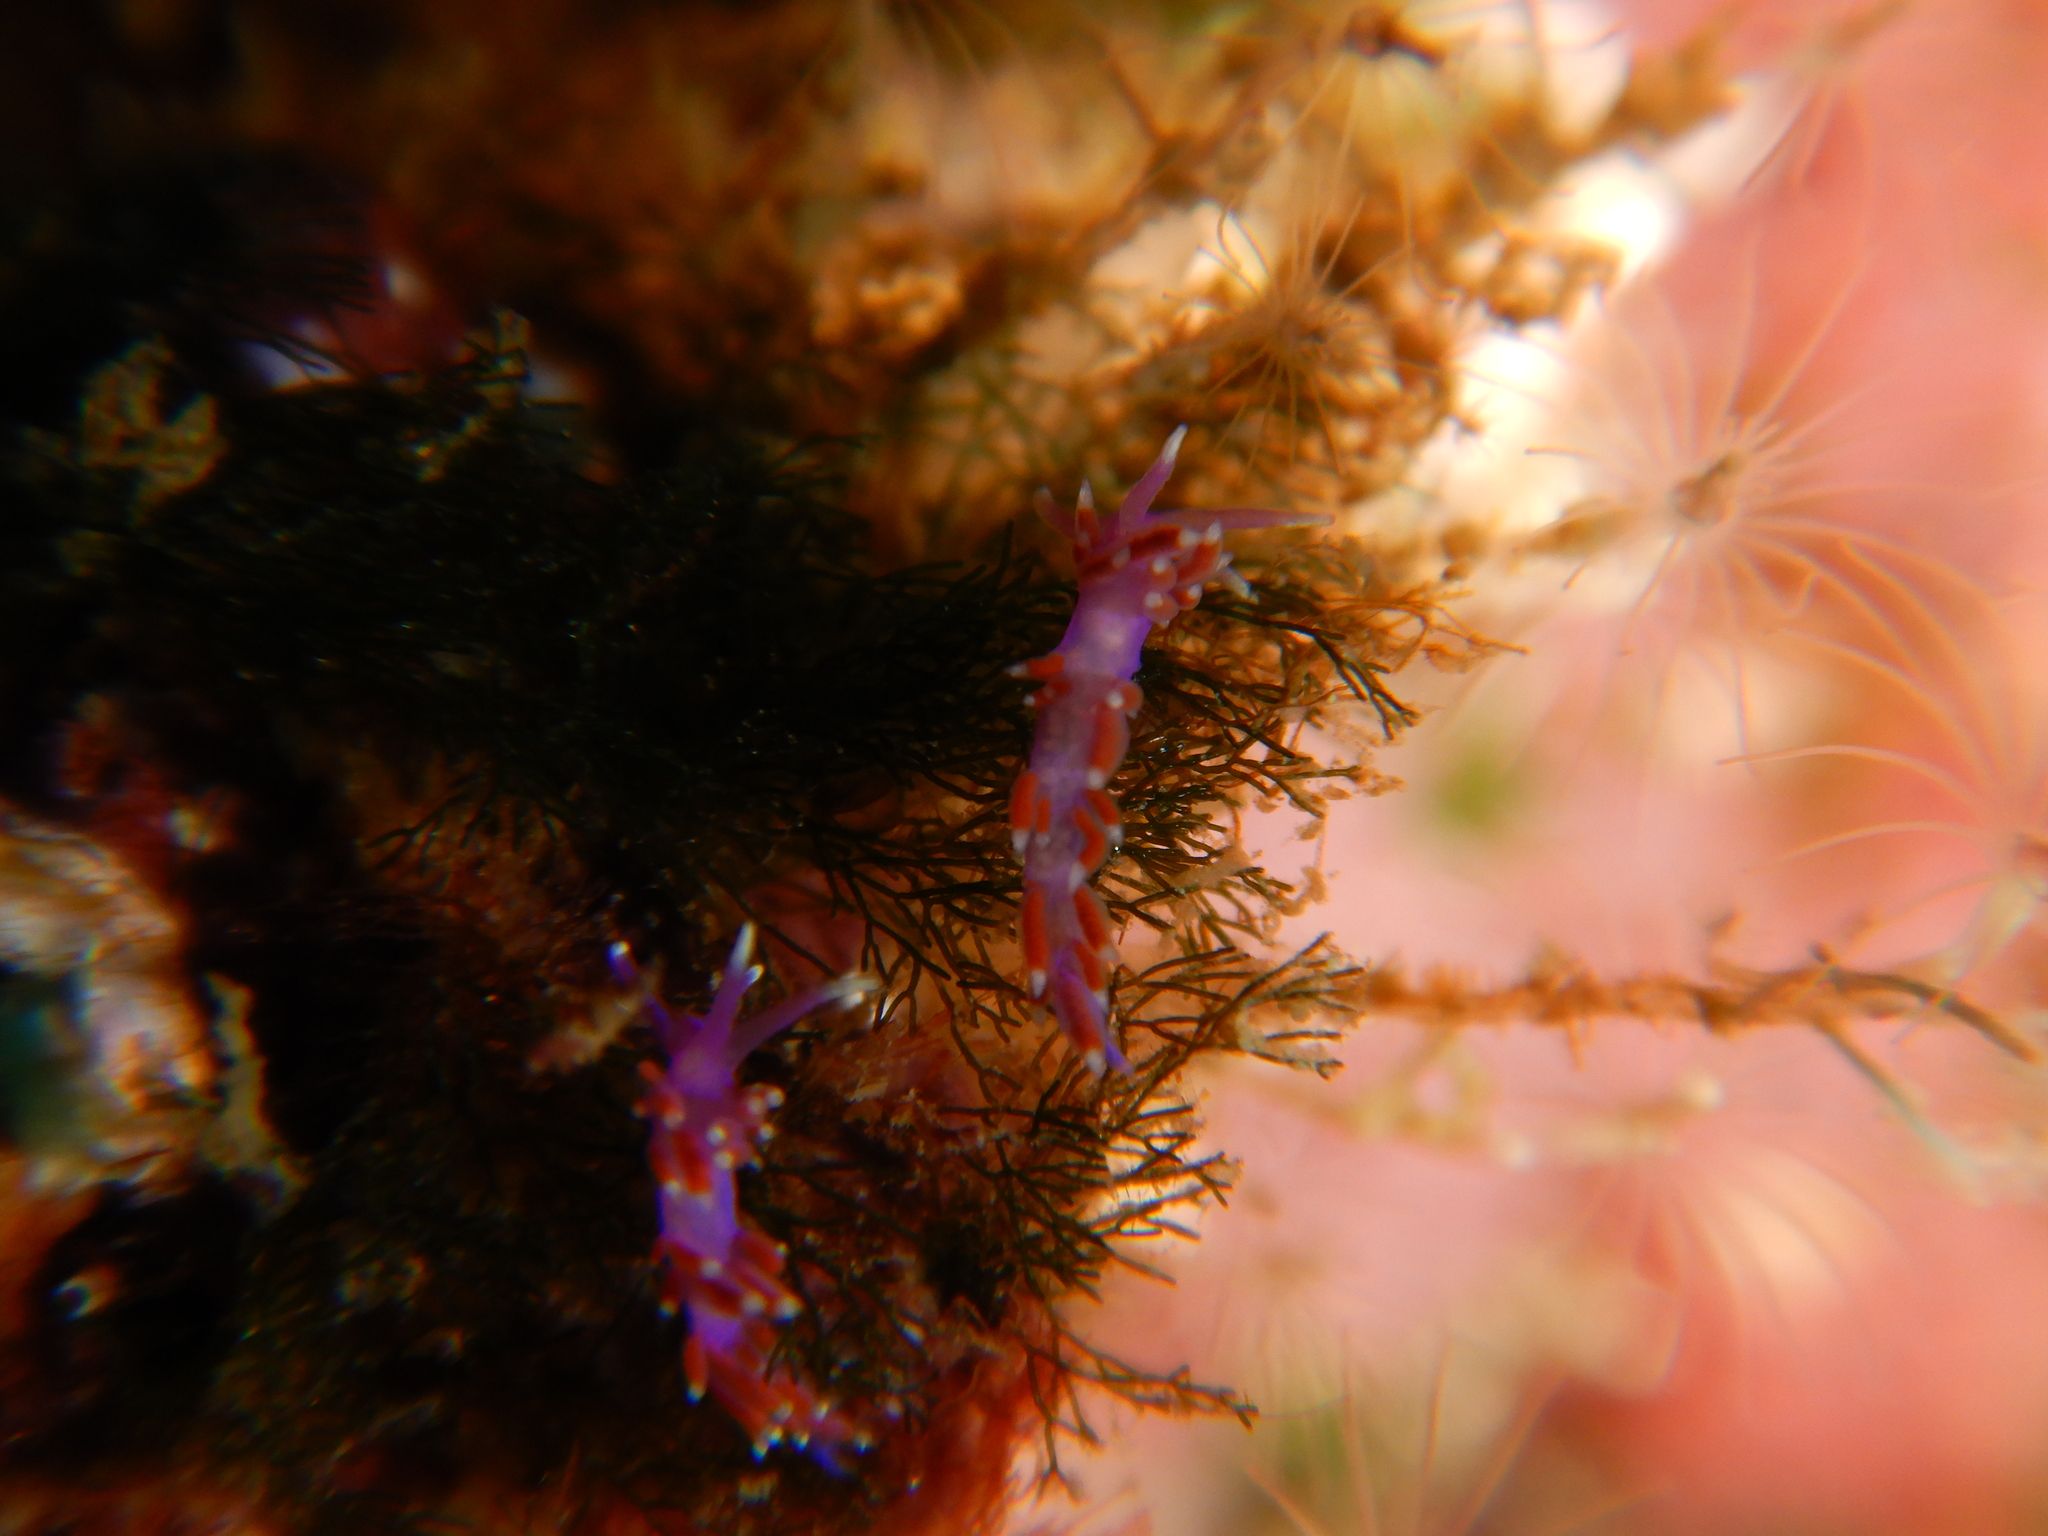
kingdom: Animalia
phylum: Mollusca
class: Gastropoda
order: Nudibranchia
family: Flabellinidae
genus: Edmundsella
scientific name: Edmundsella pedata
